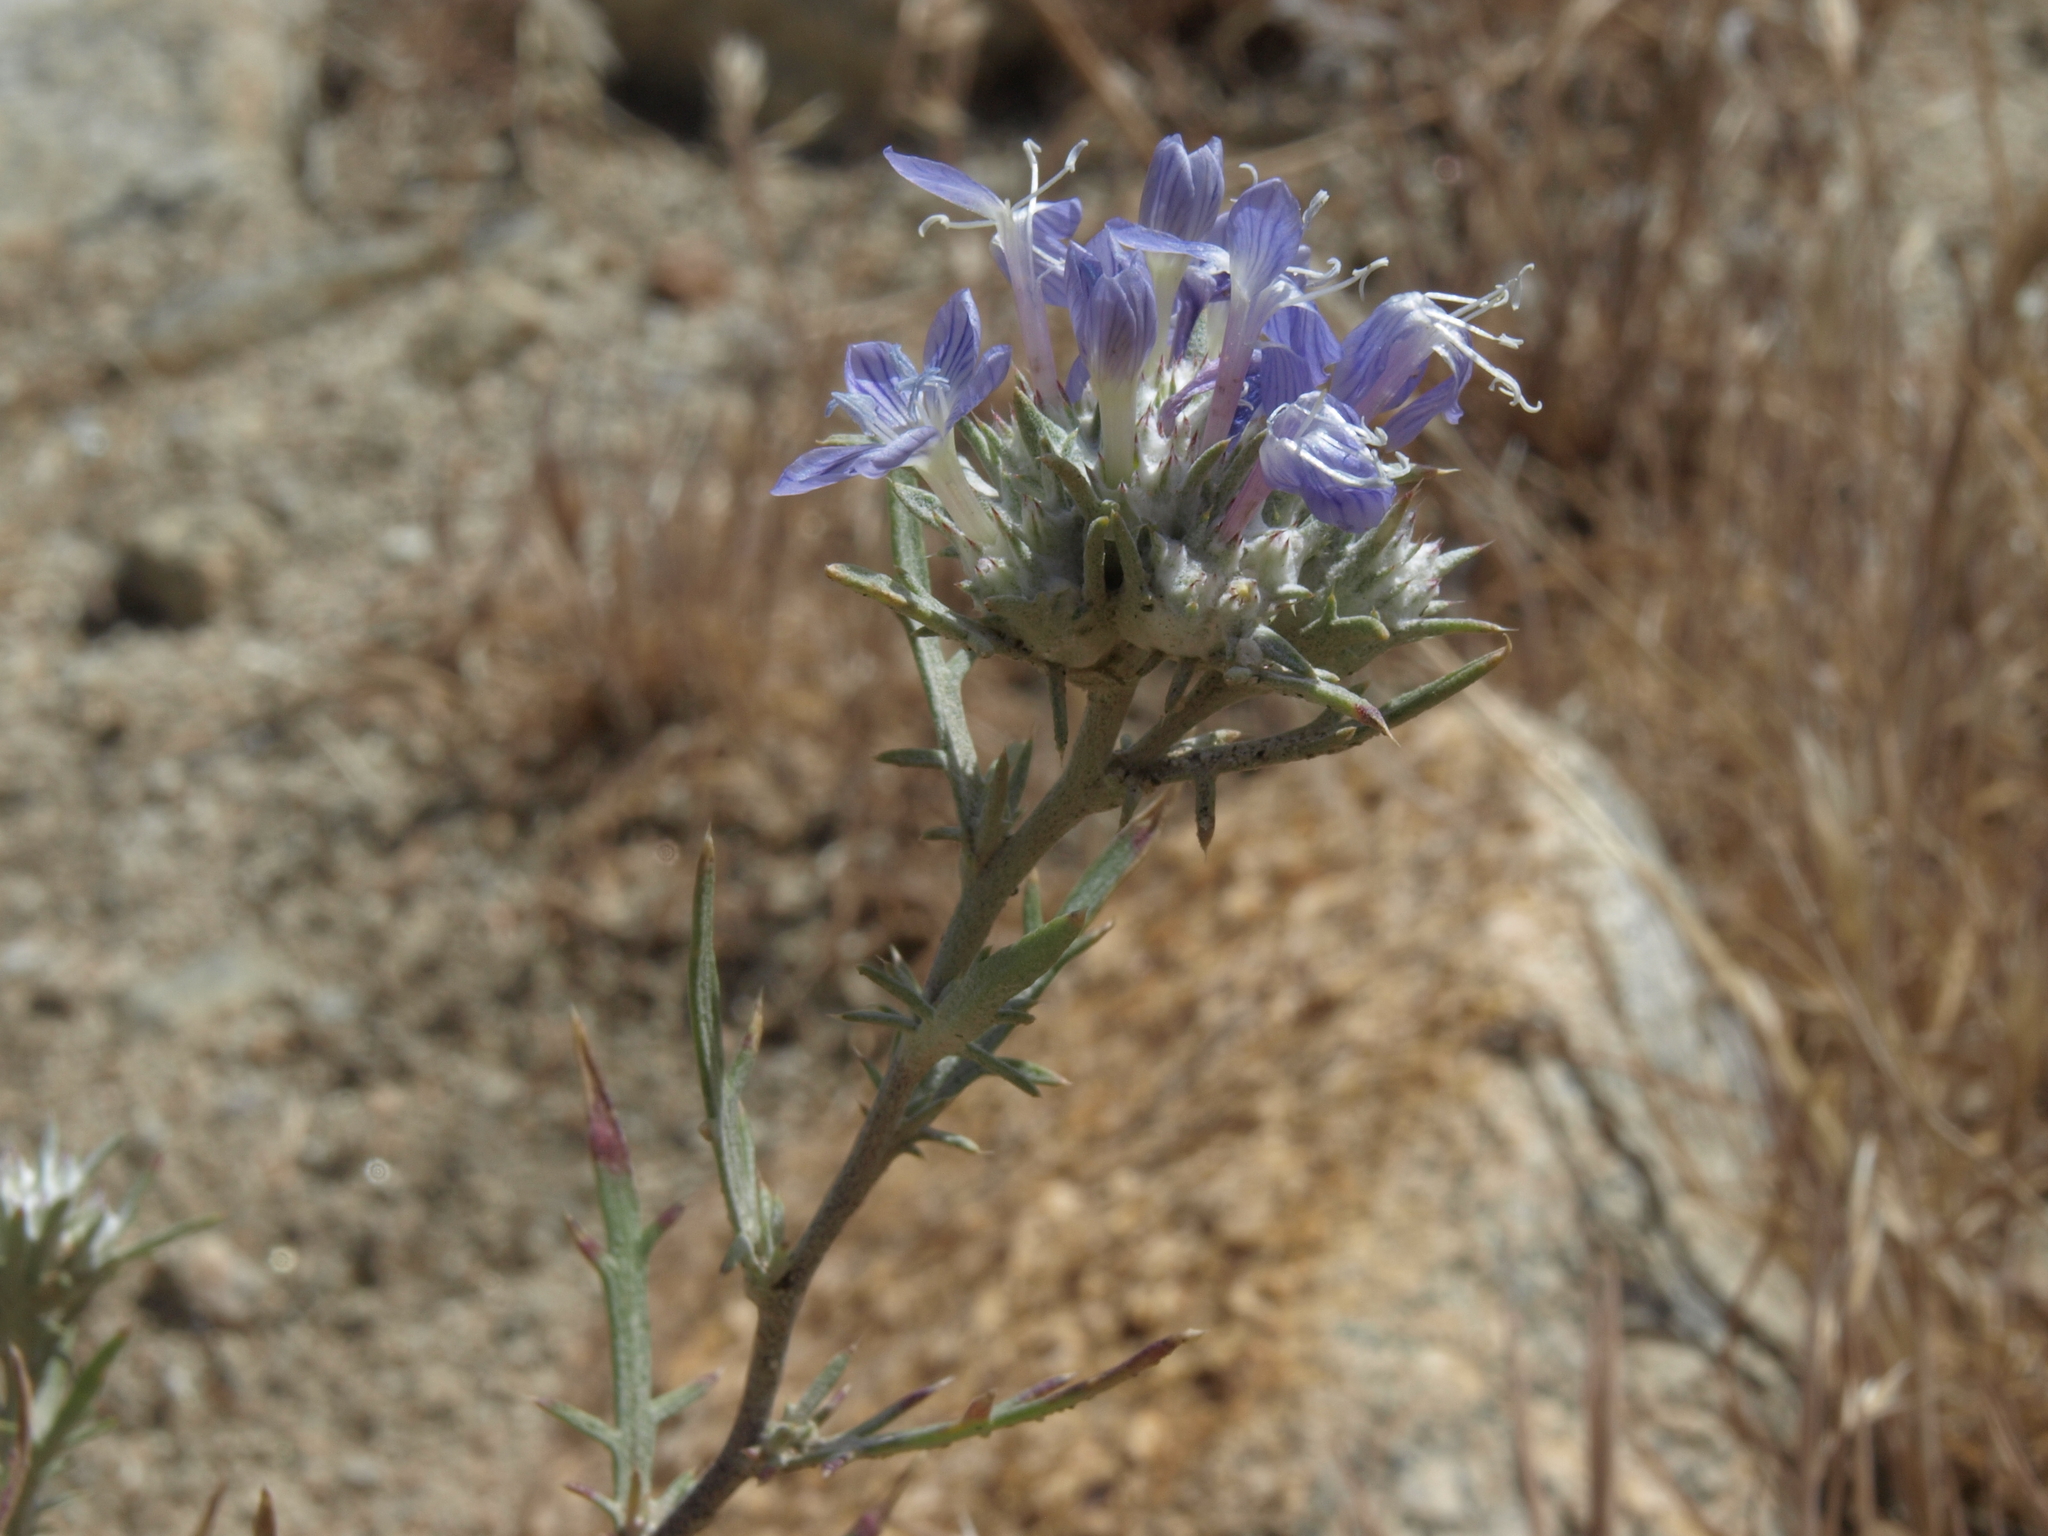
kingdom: Plantae
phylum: Tracheophyta
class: Magnoliopsida
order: Ericales
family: Polemoniaceae
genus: Eriastrum
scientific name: Eriastrum densifolium
